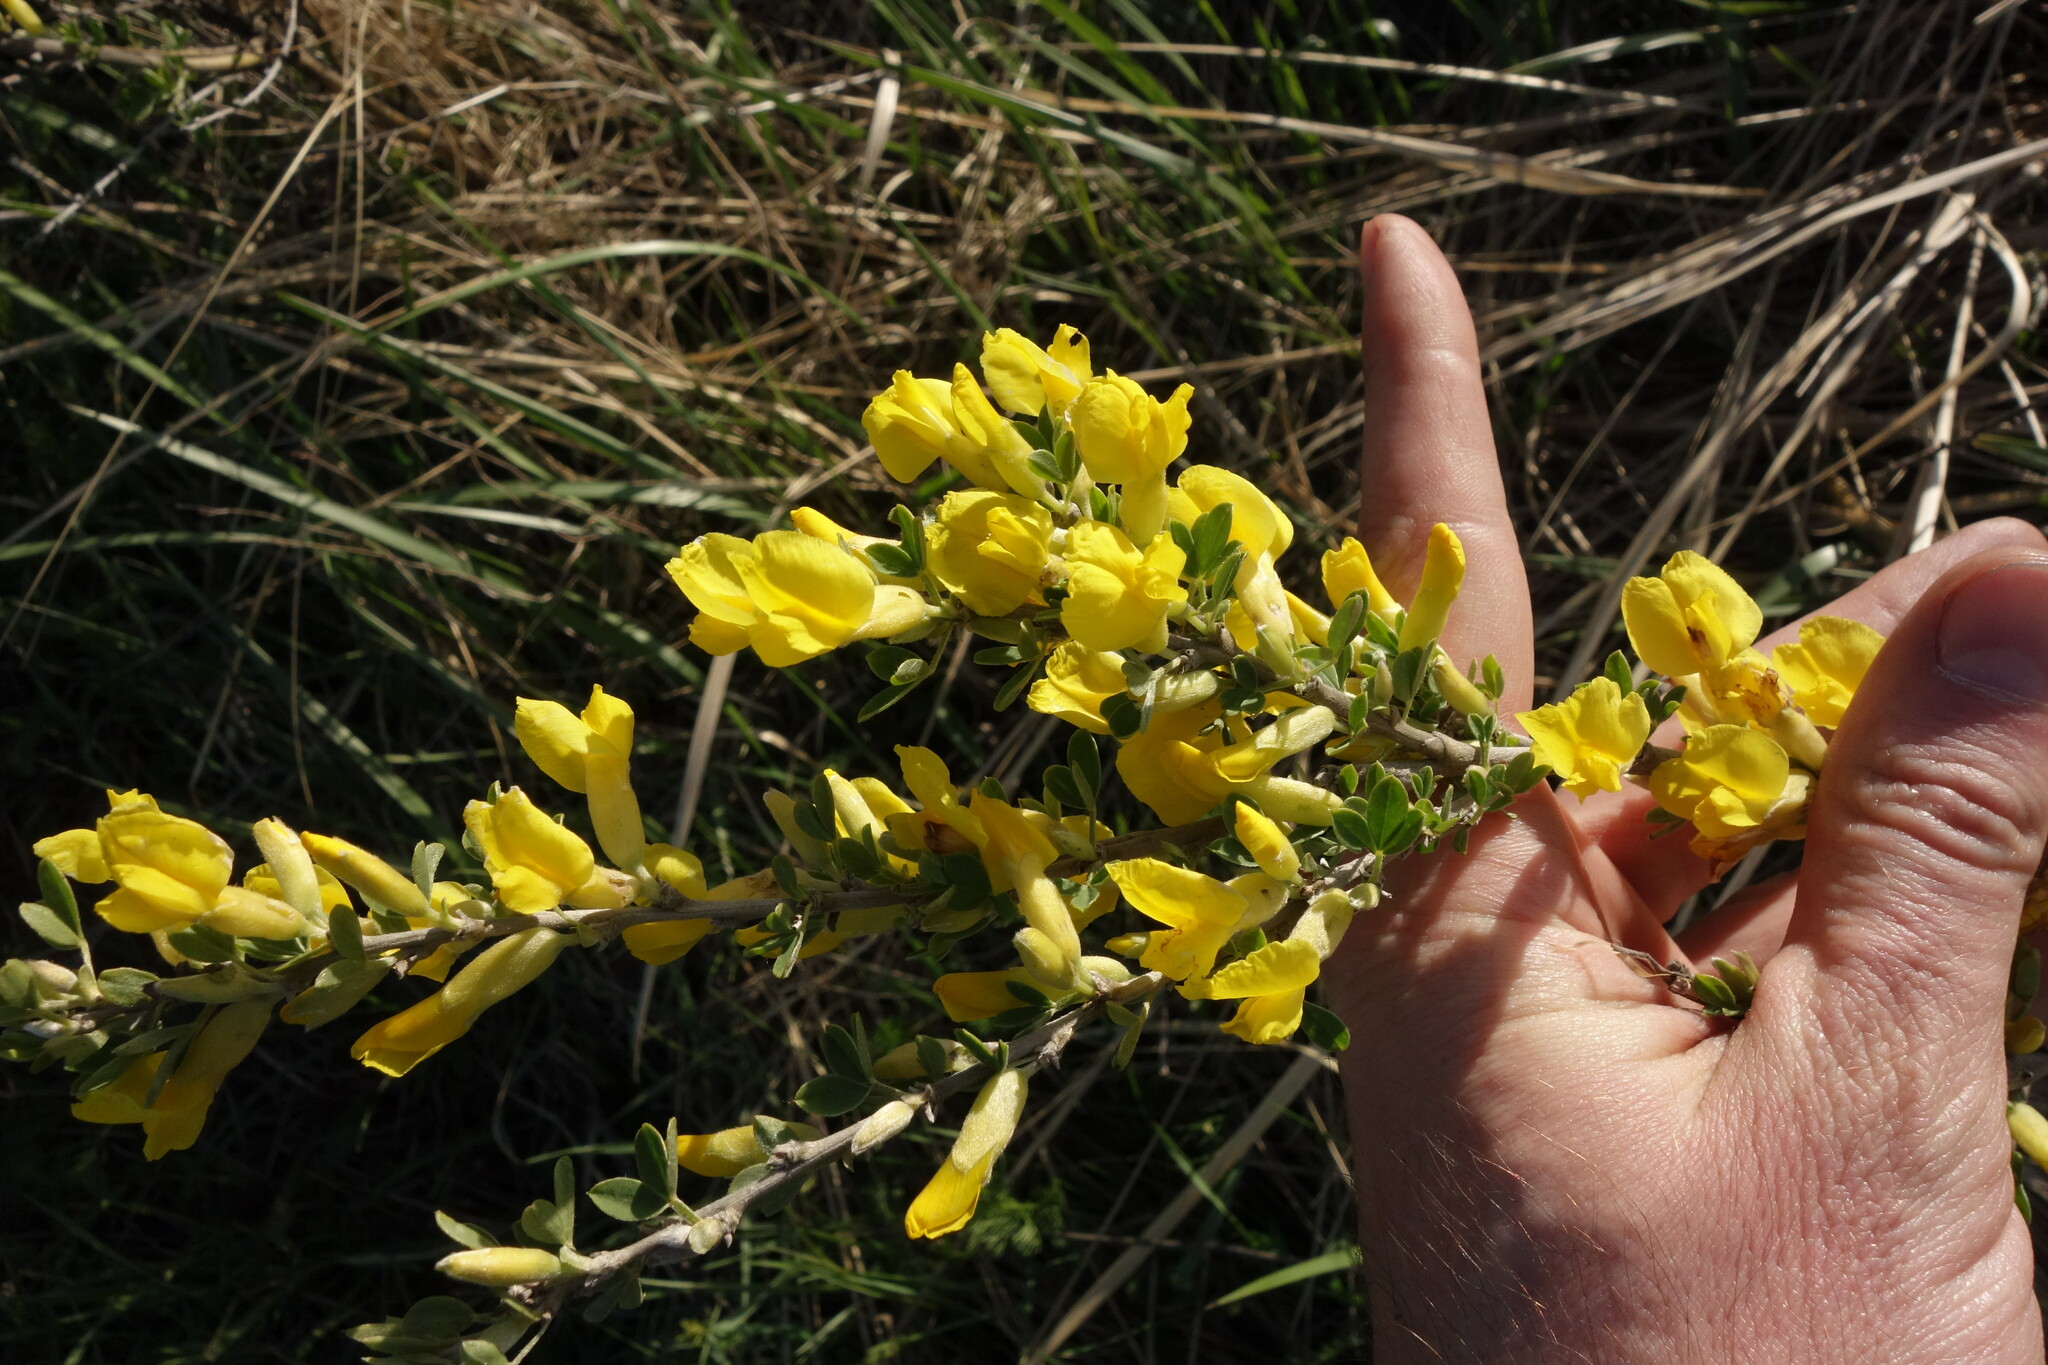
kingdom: Plantae
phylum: Tracheophyta
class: Magnoliopsida
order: Fabales
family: Fabaceae
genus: Chamaecytisus
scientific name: Chamaecytisus ruthenicus
